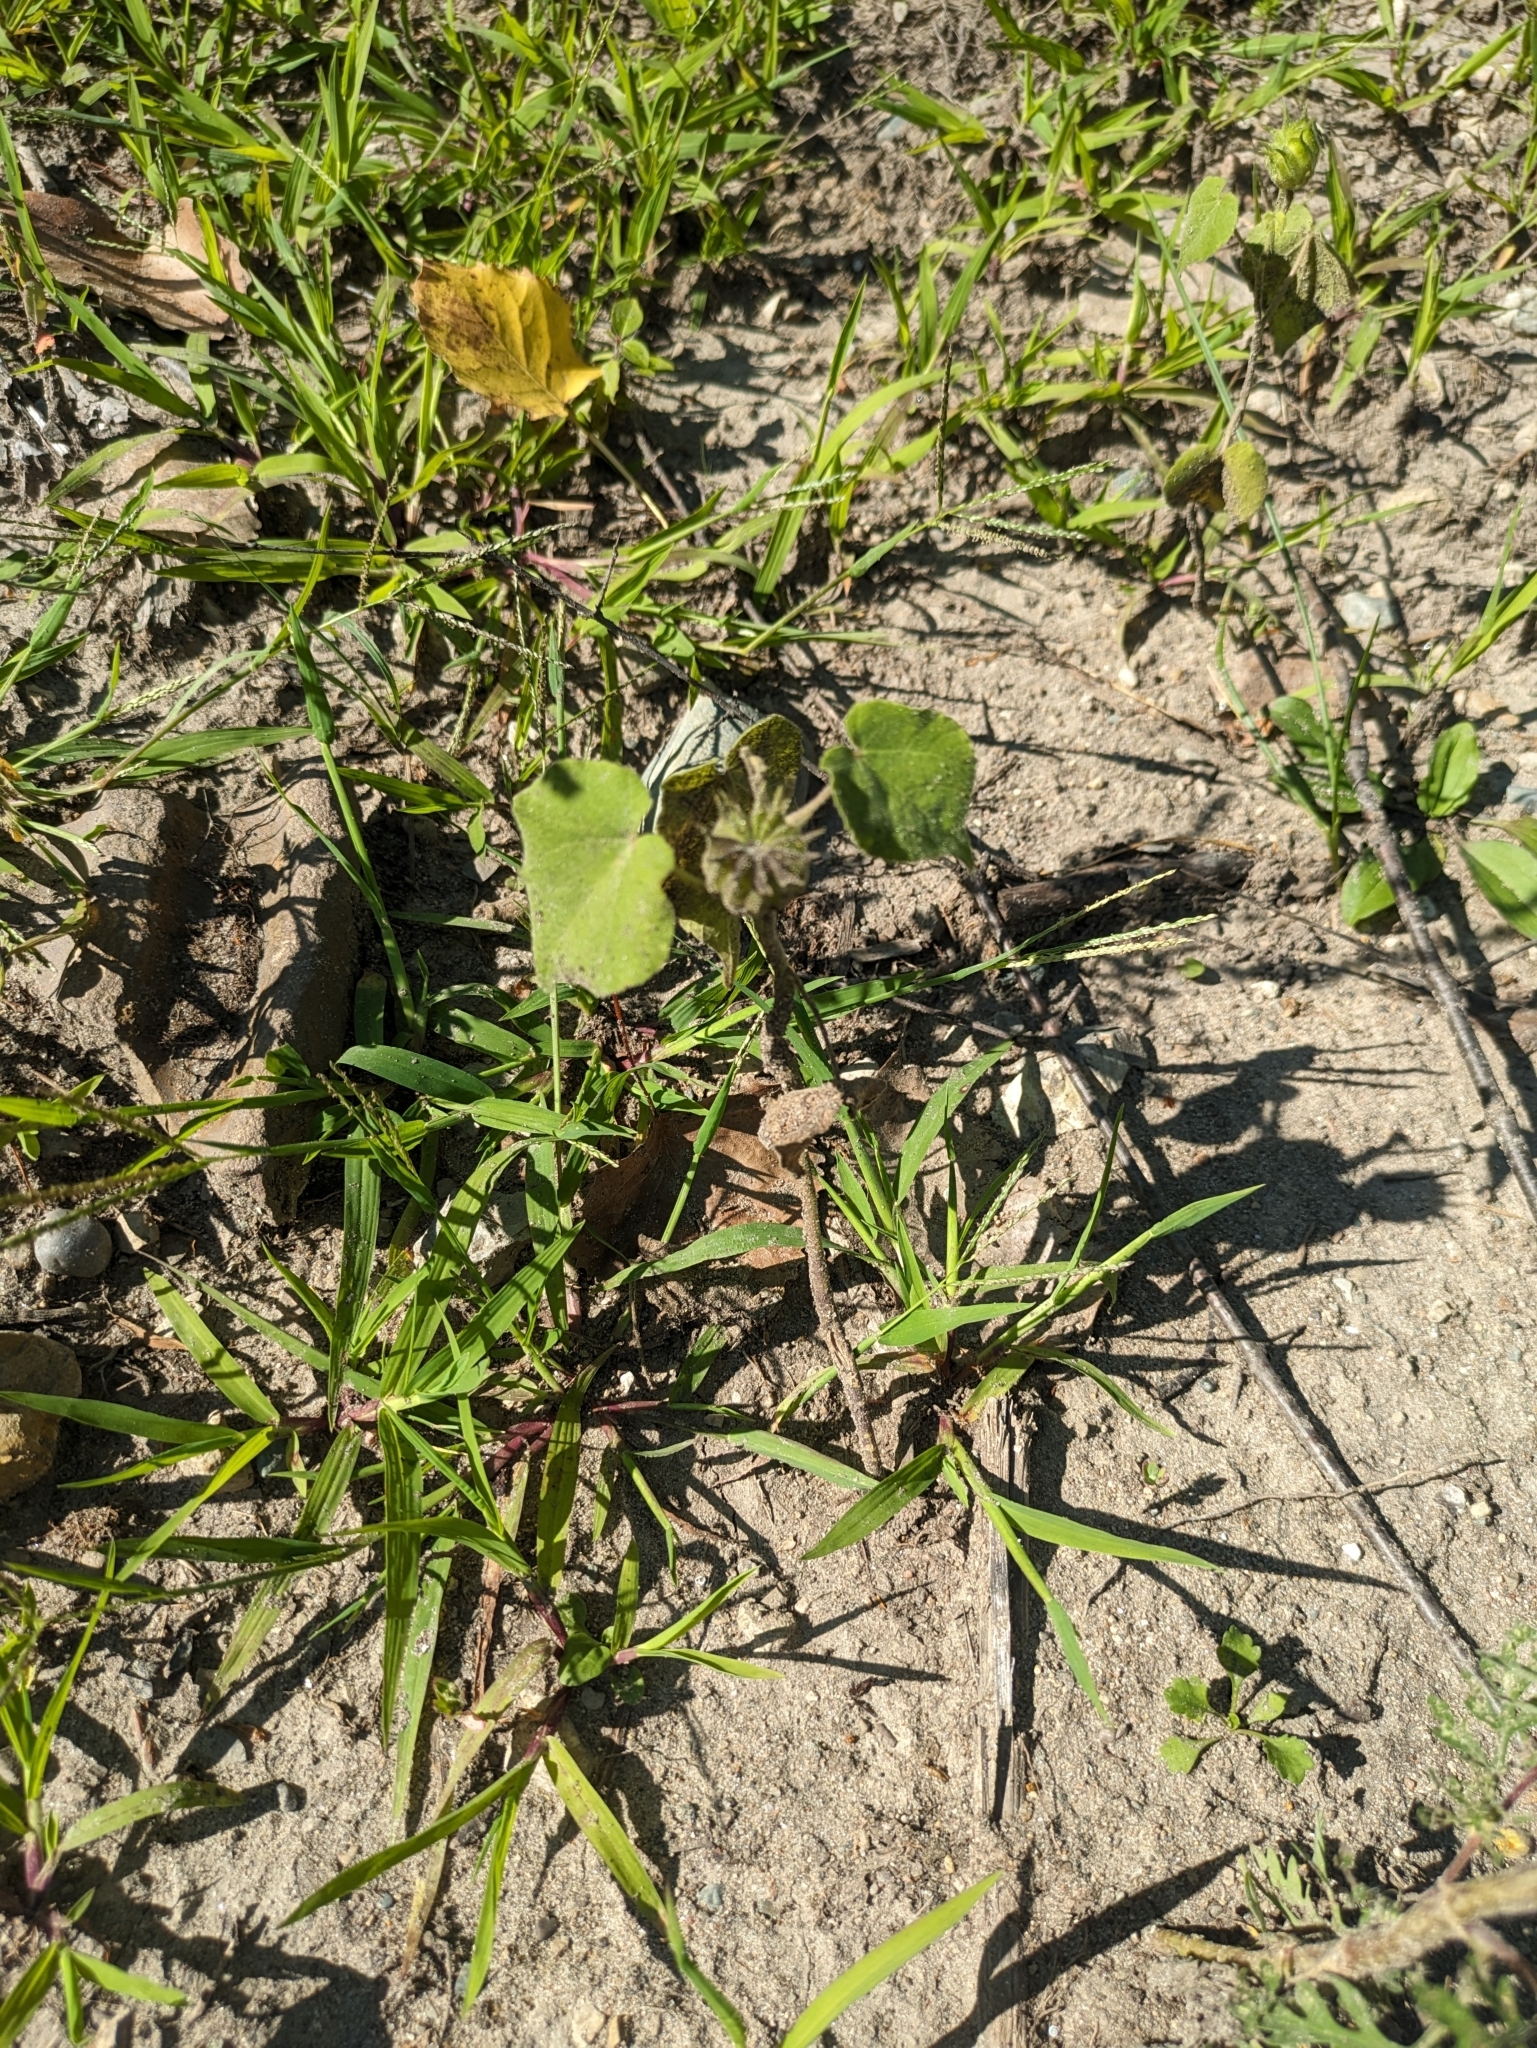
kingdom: Plantae
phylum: Tracheophyta
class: Magnoliopsida
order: Malvales
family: Malvaceae
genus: Abutilon
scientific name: Abutilon theophrasti
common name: Velvetleaf
